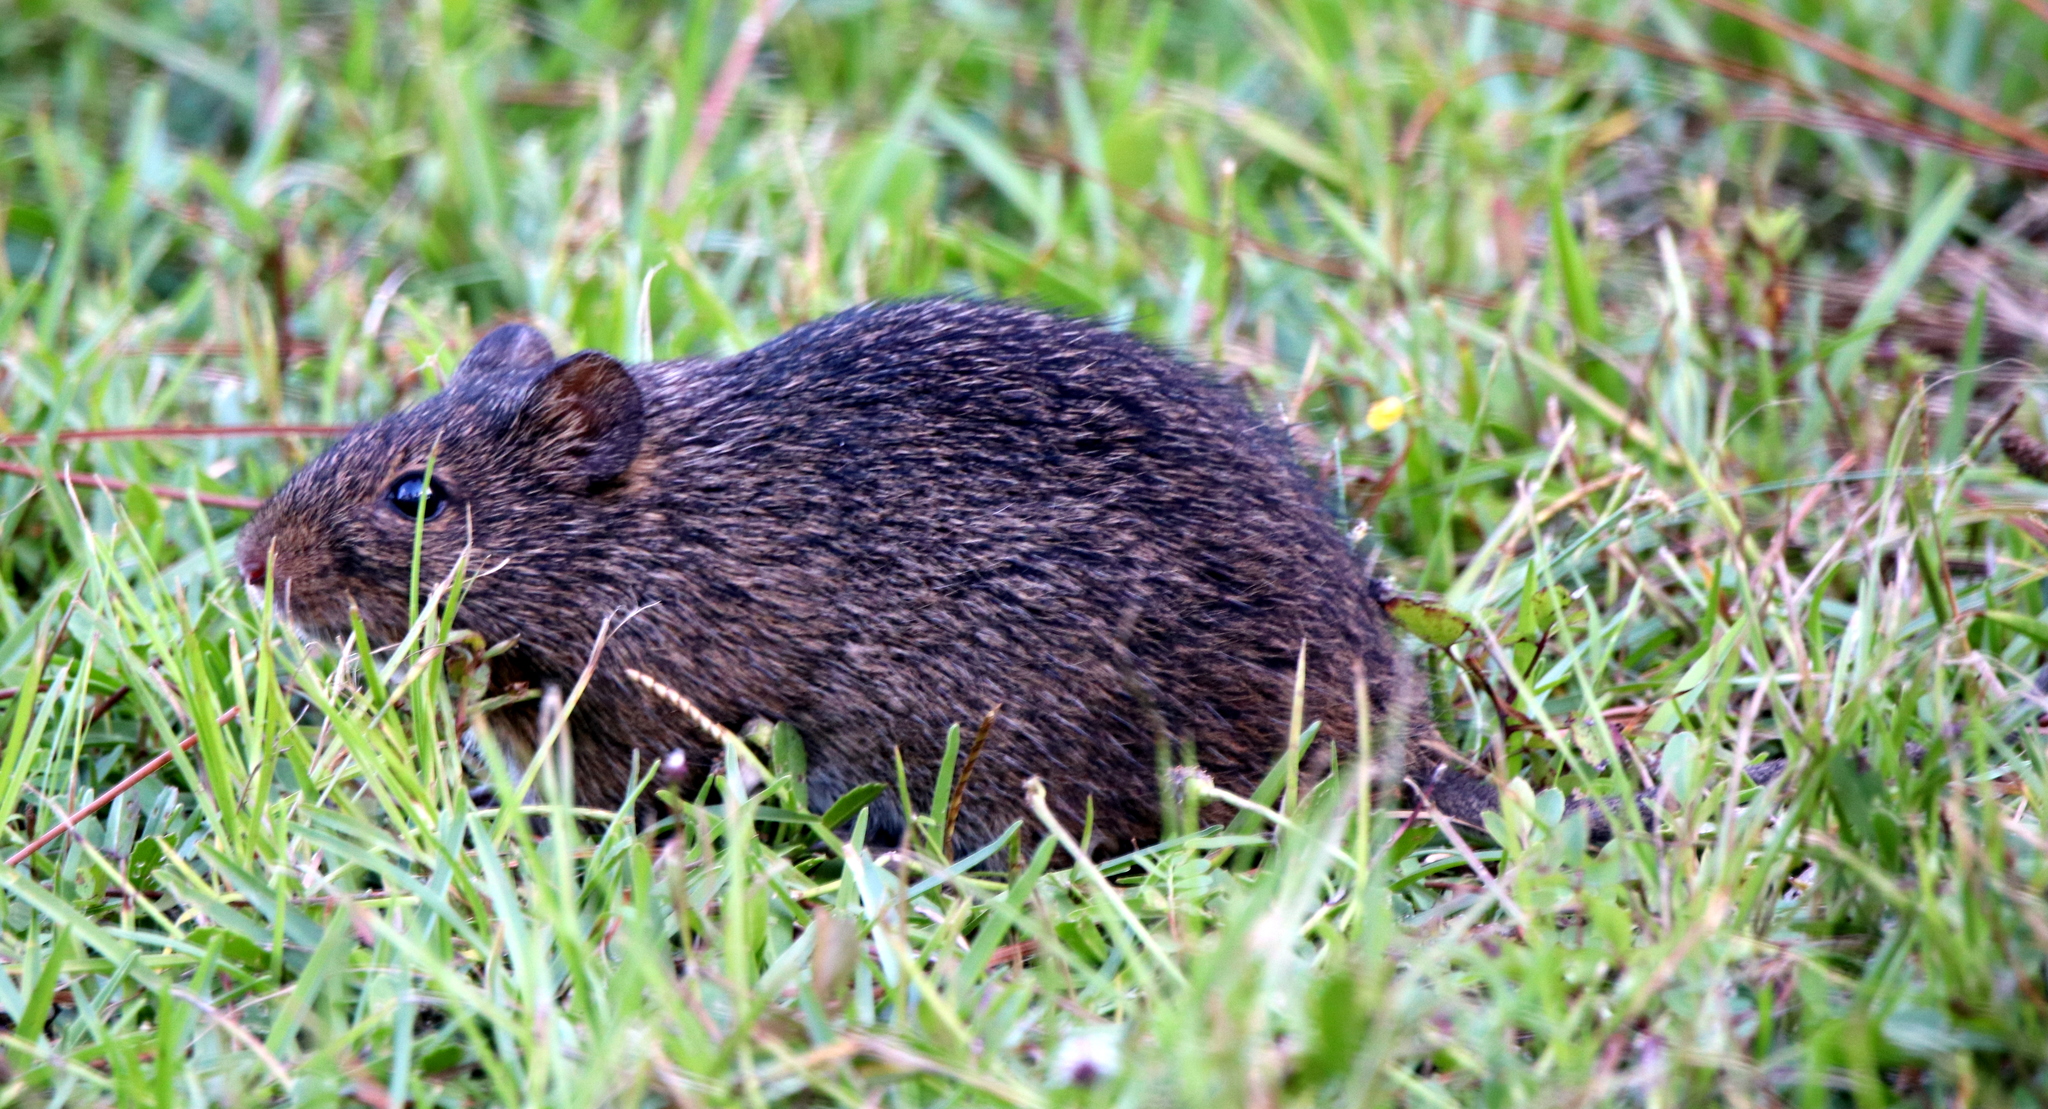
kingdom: Animalia
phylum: Chordata
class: Mammalia
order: Rodentia
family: Cricetidae
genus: Sigmodon
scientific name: Sigmodon hispidus
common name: Hispid cotton rat
